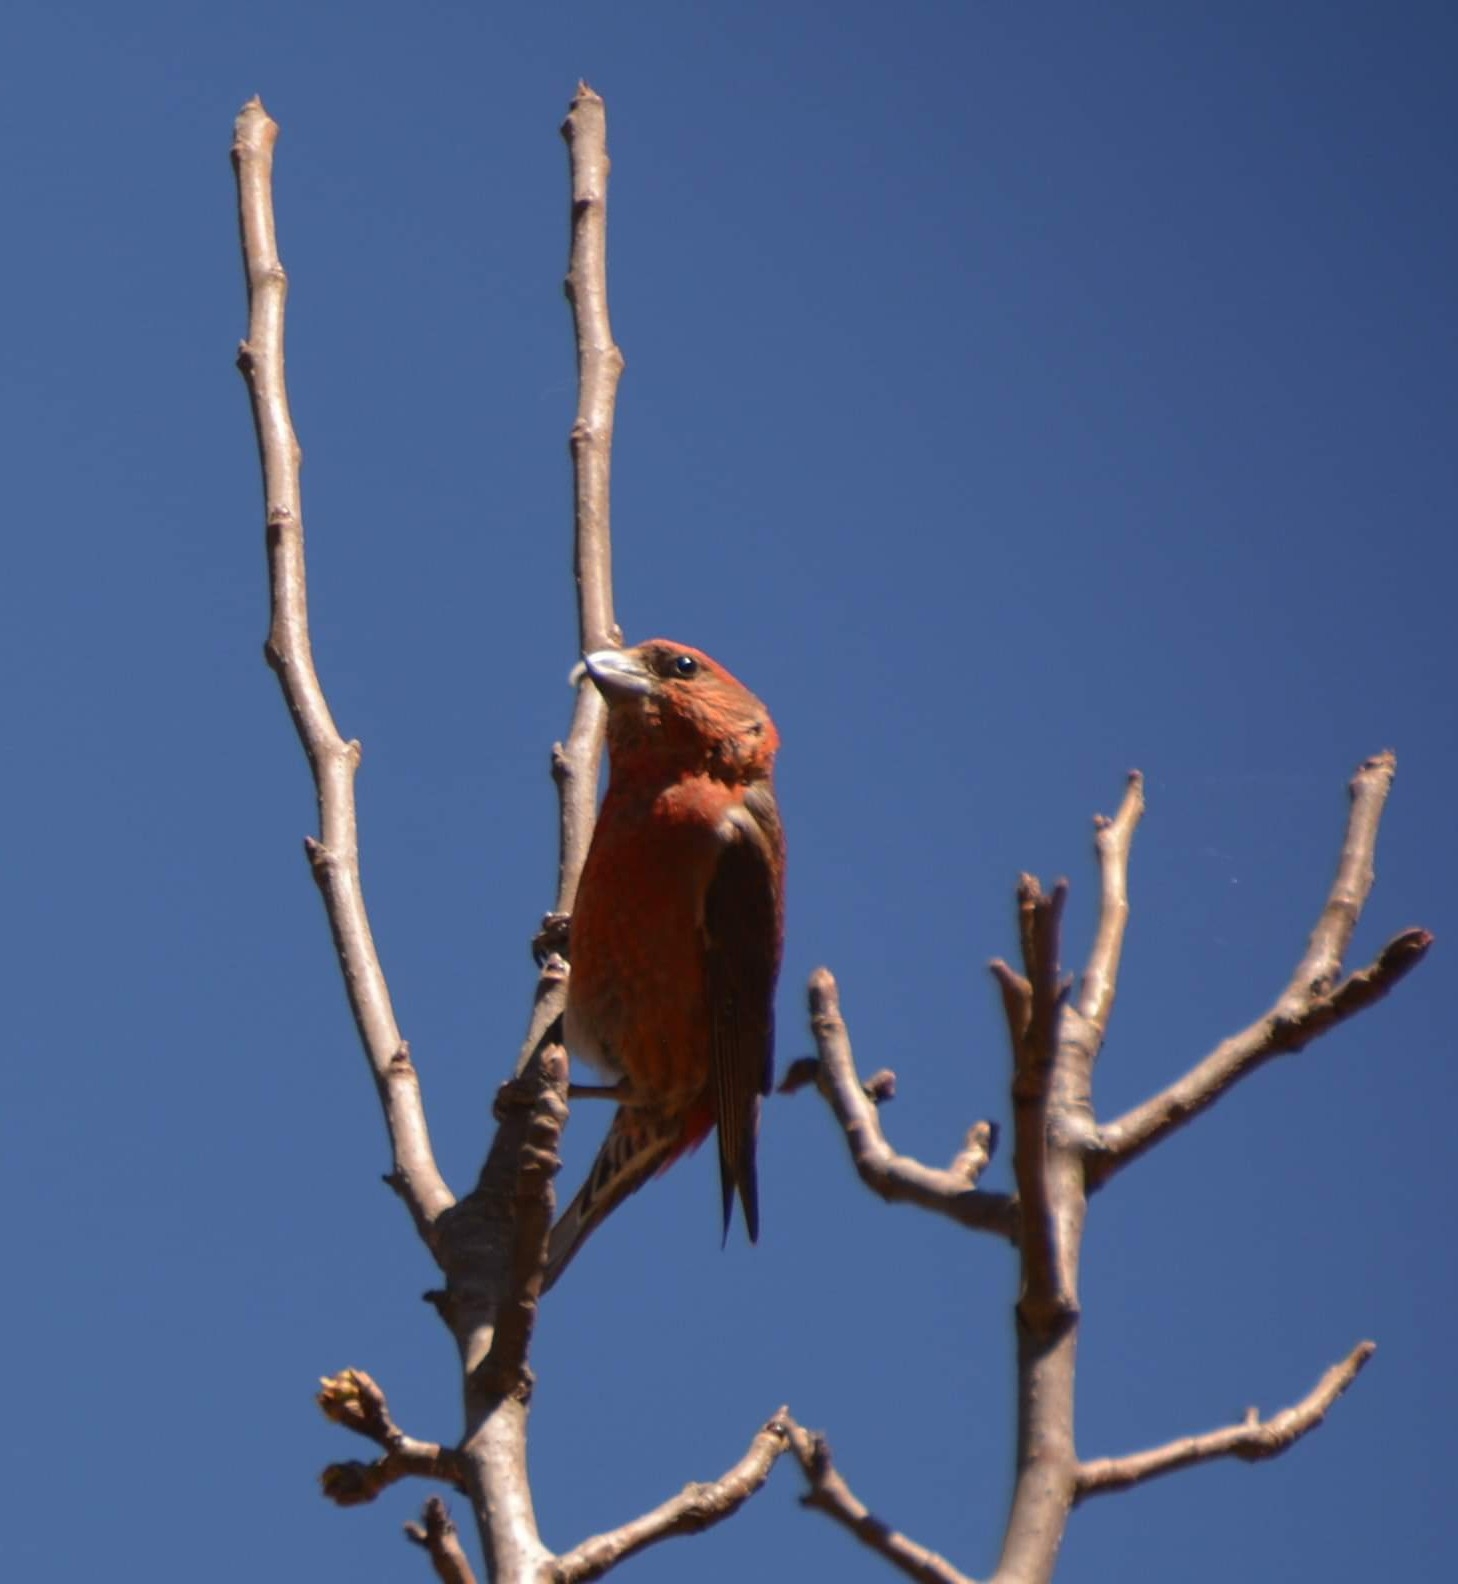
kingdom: Animalia
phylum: Chordata
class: Aves
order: Passeriformes
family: Fringillidae
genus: Loxia
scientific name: Loxia curvirostra
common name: Red crossbill
